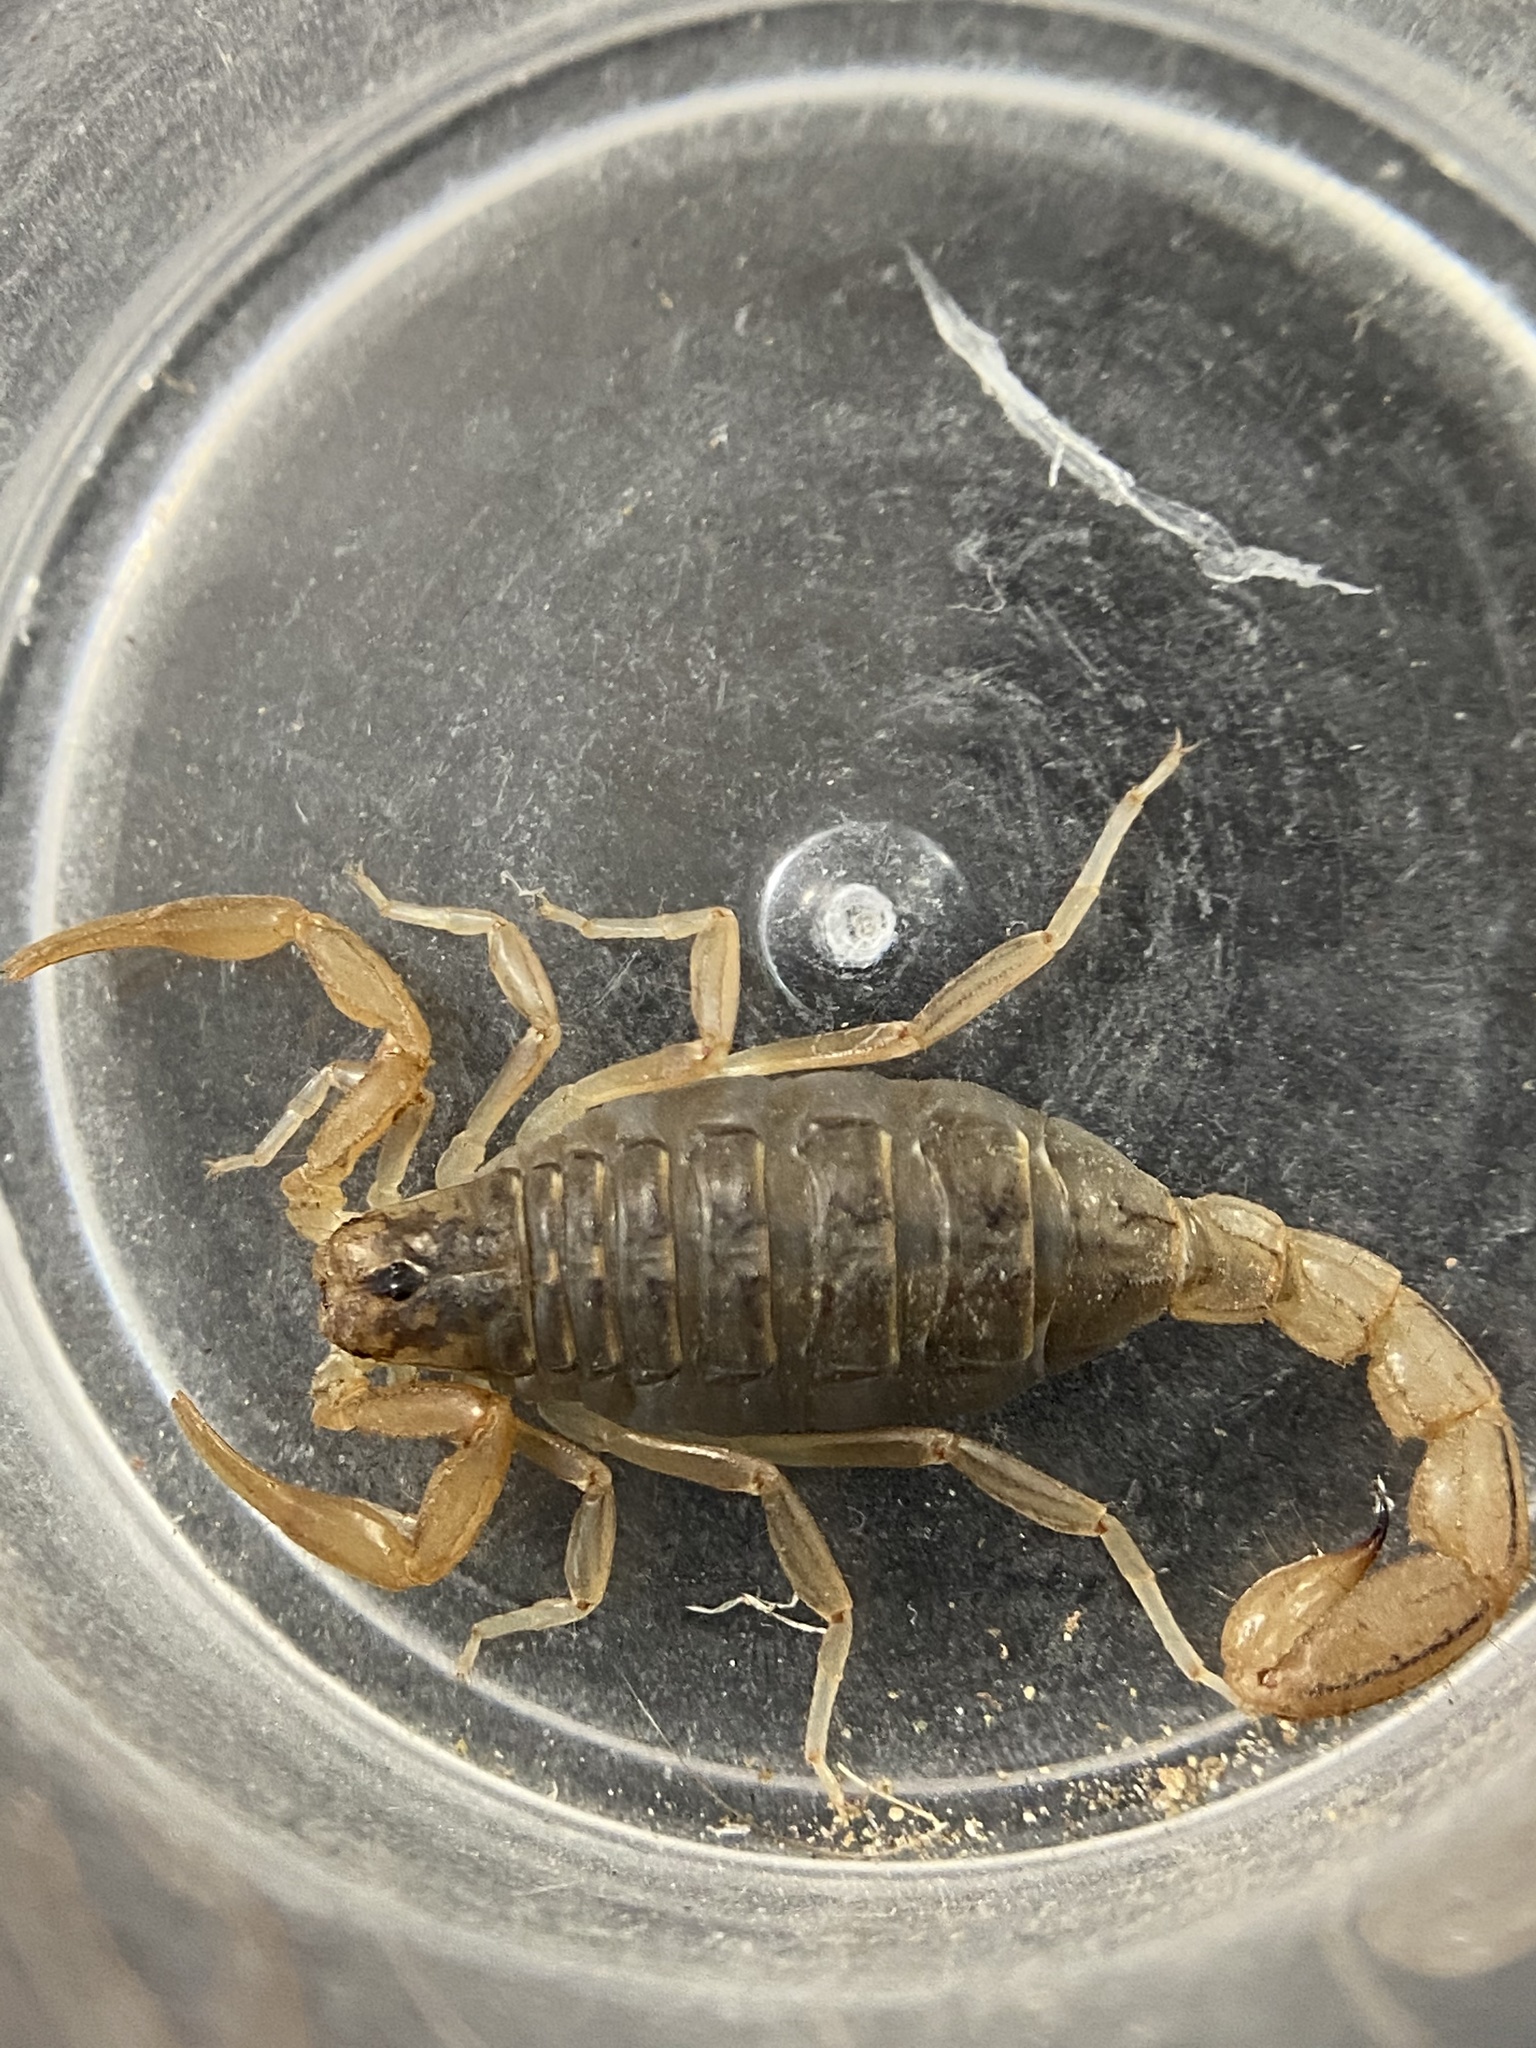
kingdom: Animalia
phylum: Arthropoda
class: Arachnida
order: Scorpiones
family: Vaejovidae
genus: Paravaejovis
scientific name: Paravaejovis spinigerus
